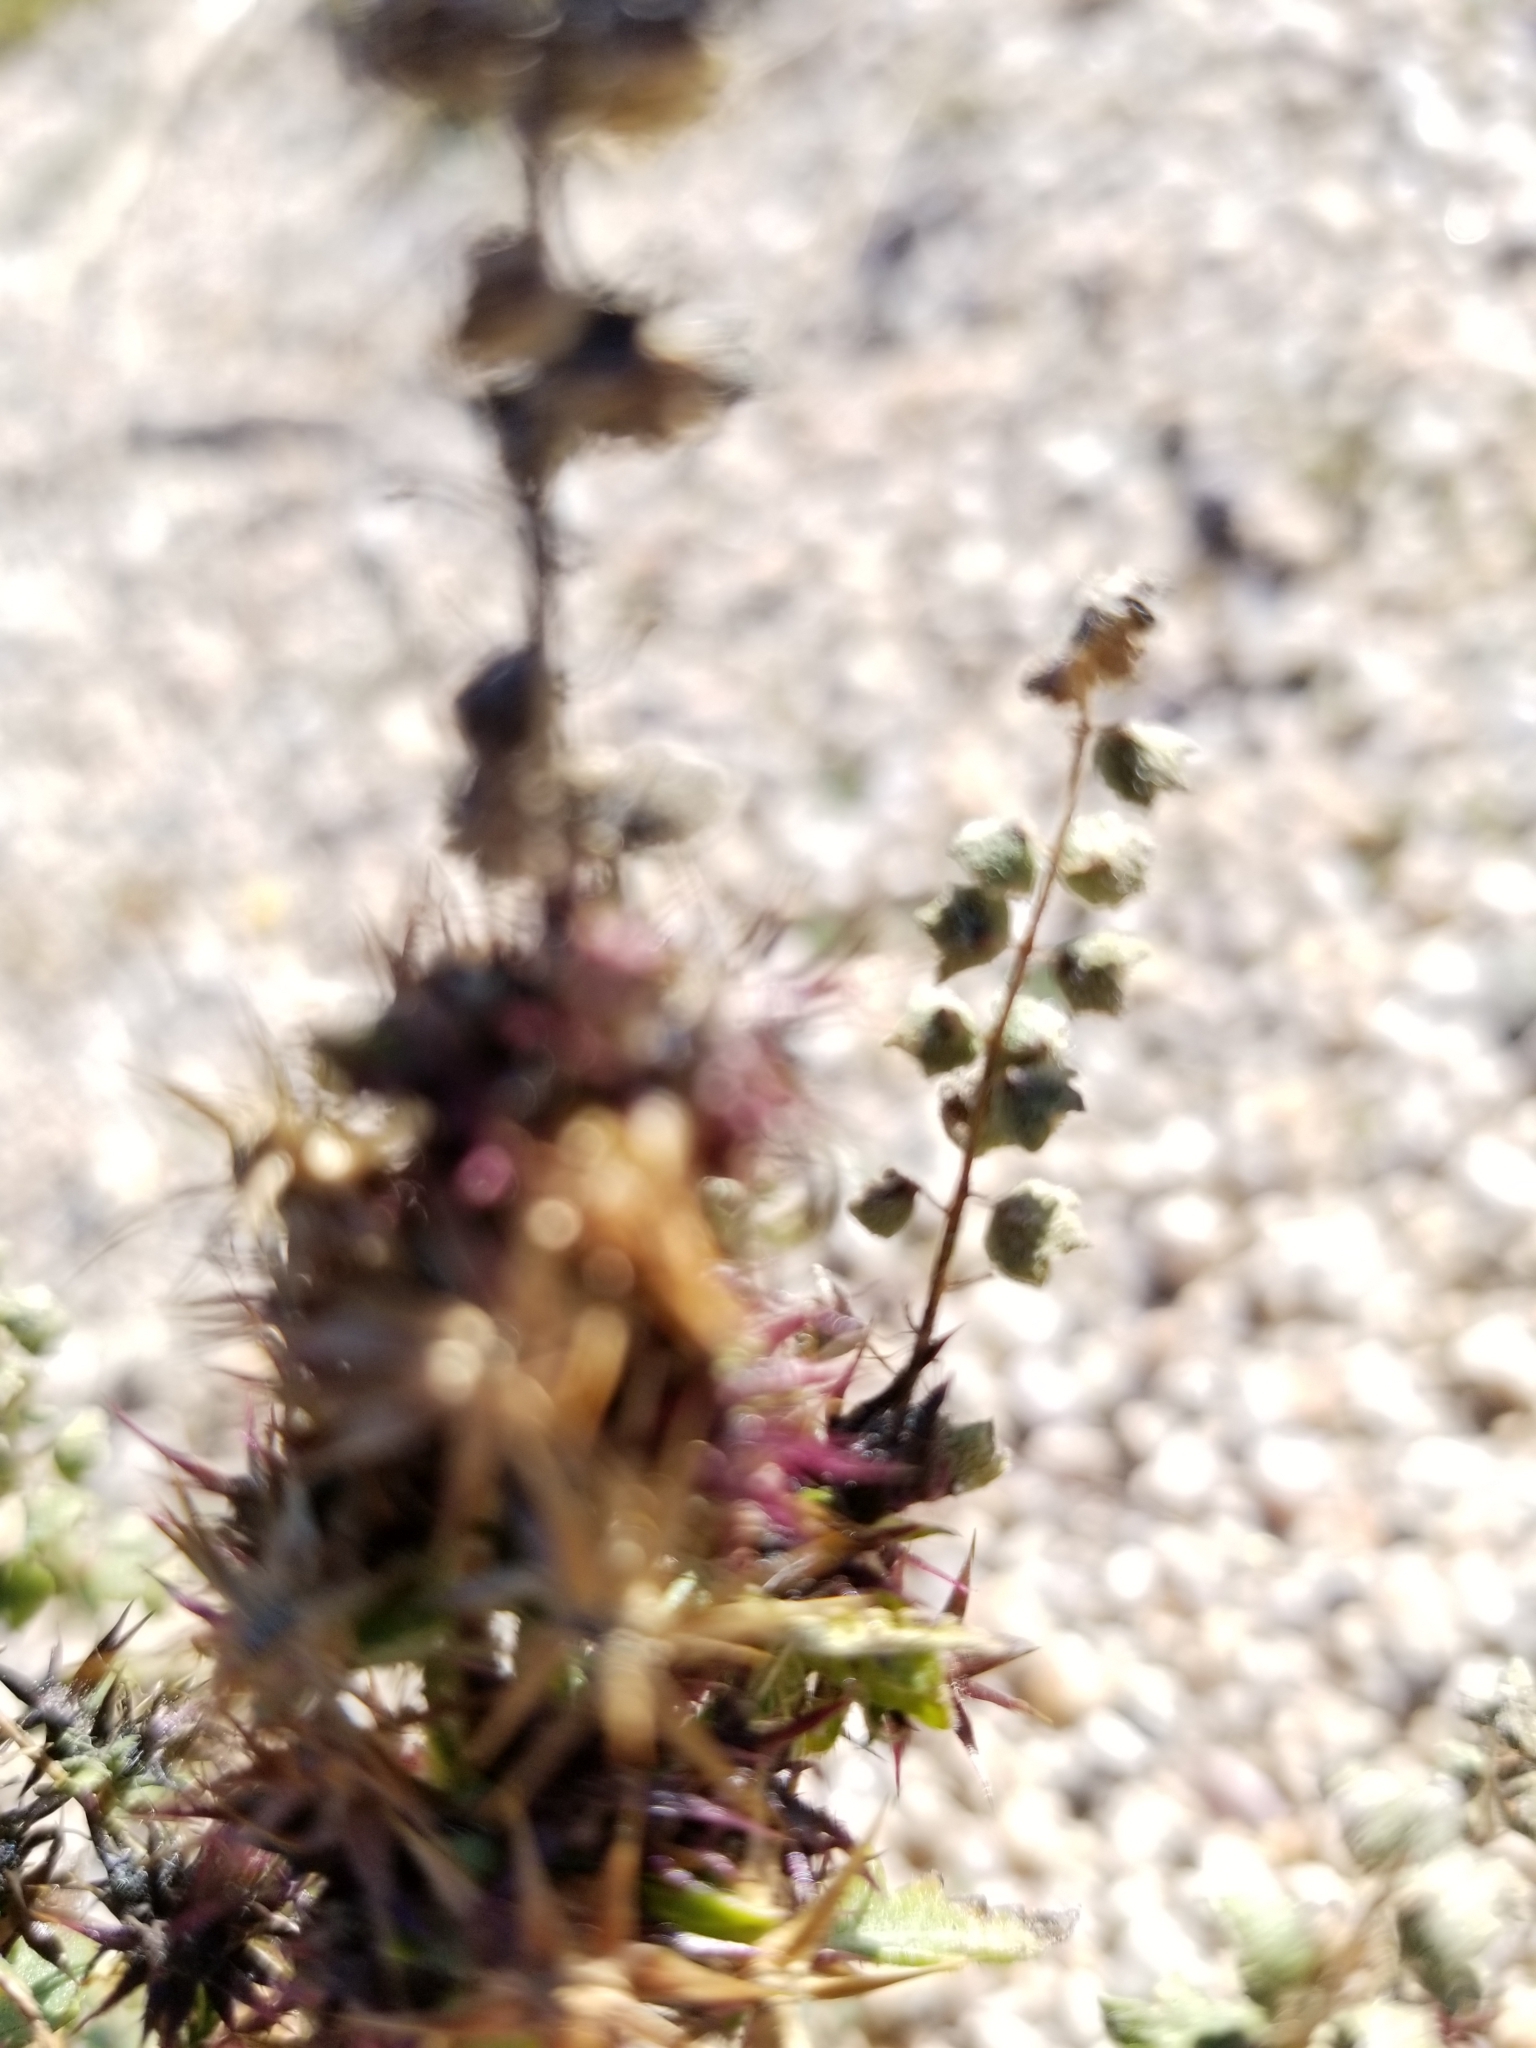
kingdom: Plantae
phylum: Tracheophyta
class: Magnoliopsida
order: Caryophyllales
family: Polygonaceae
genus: Chorizanthe
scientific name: Chorizanthe rigida
